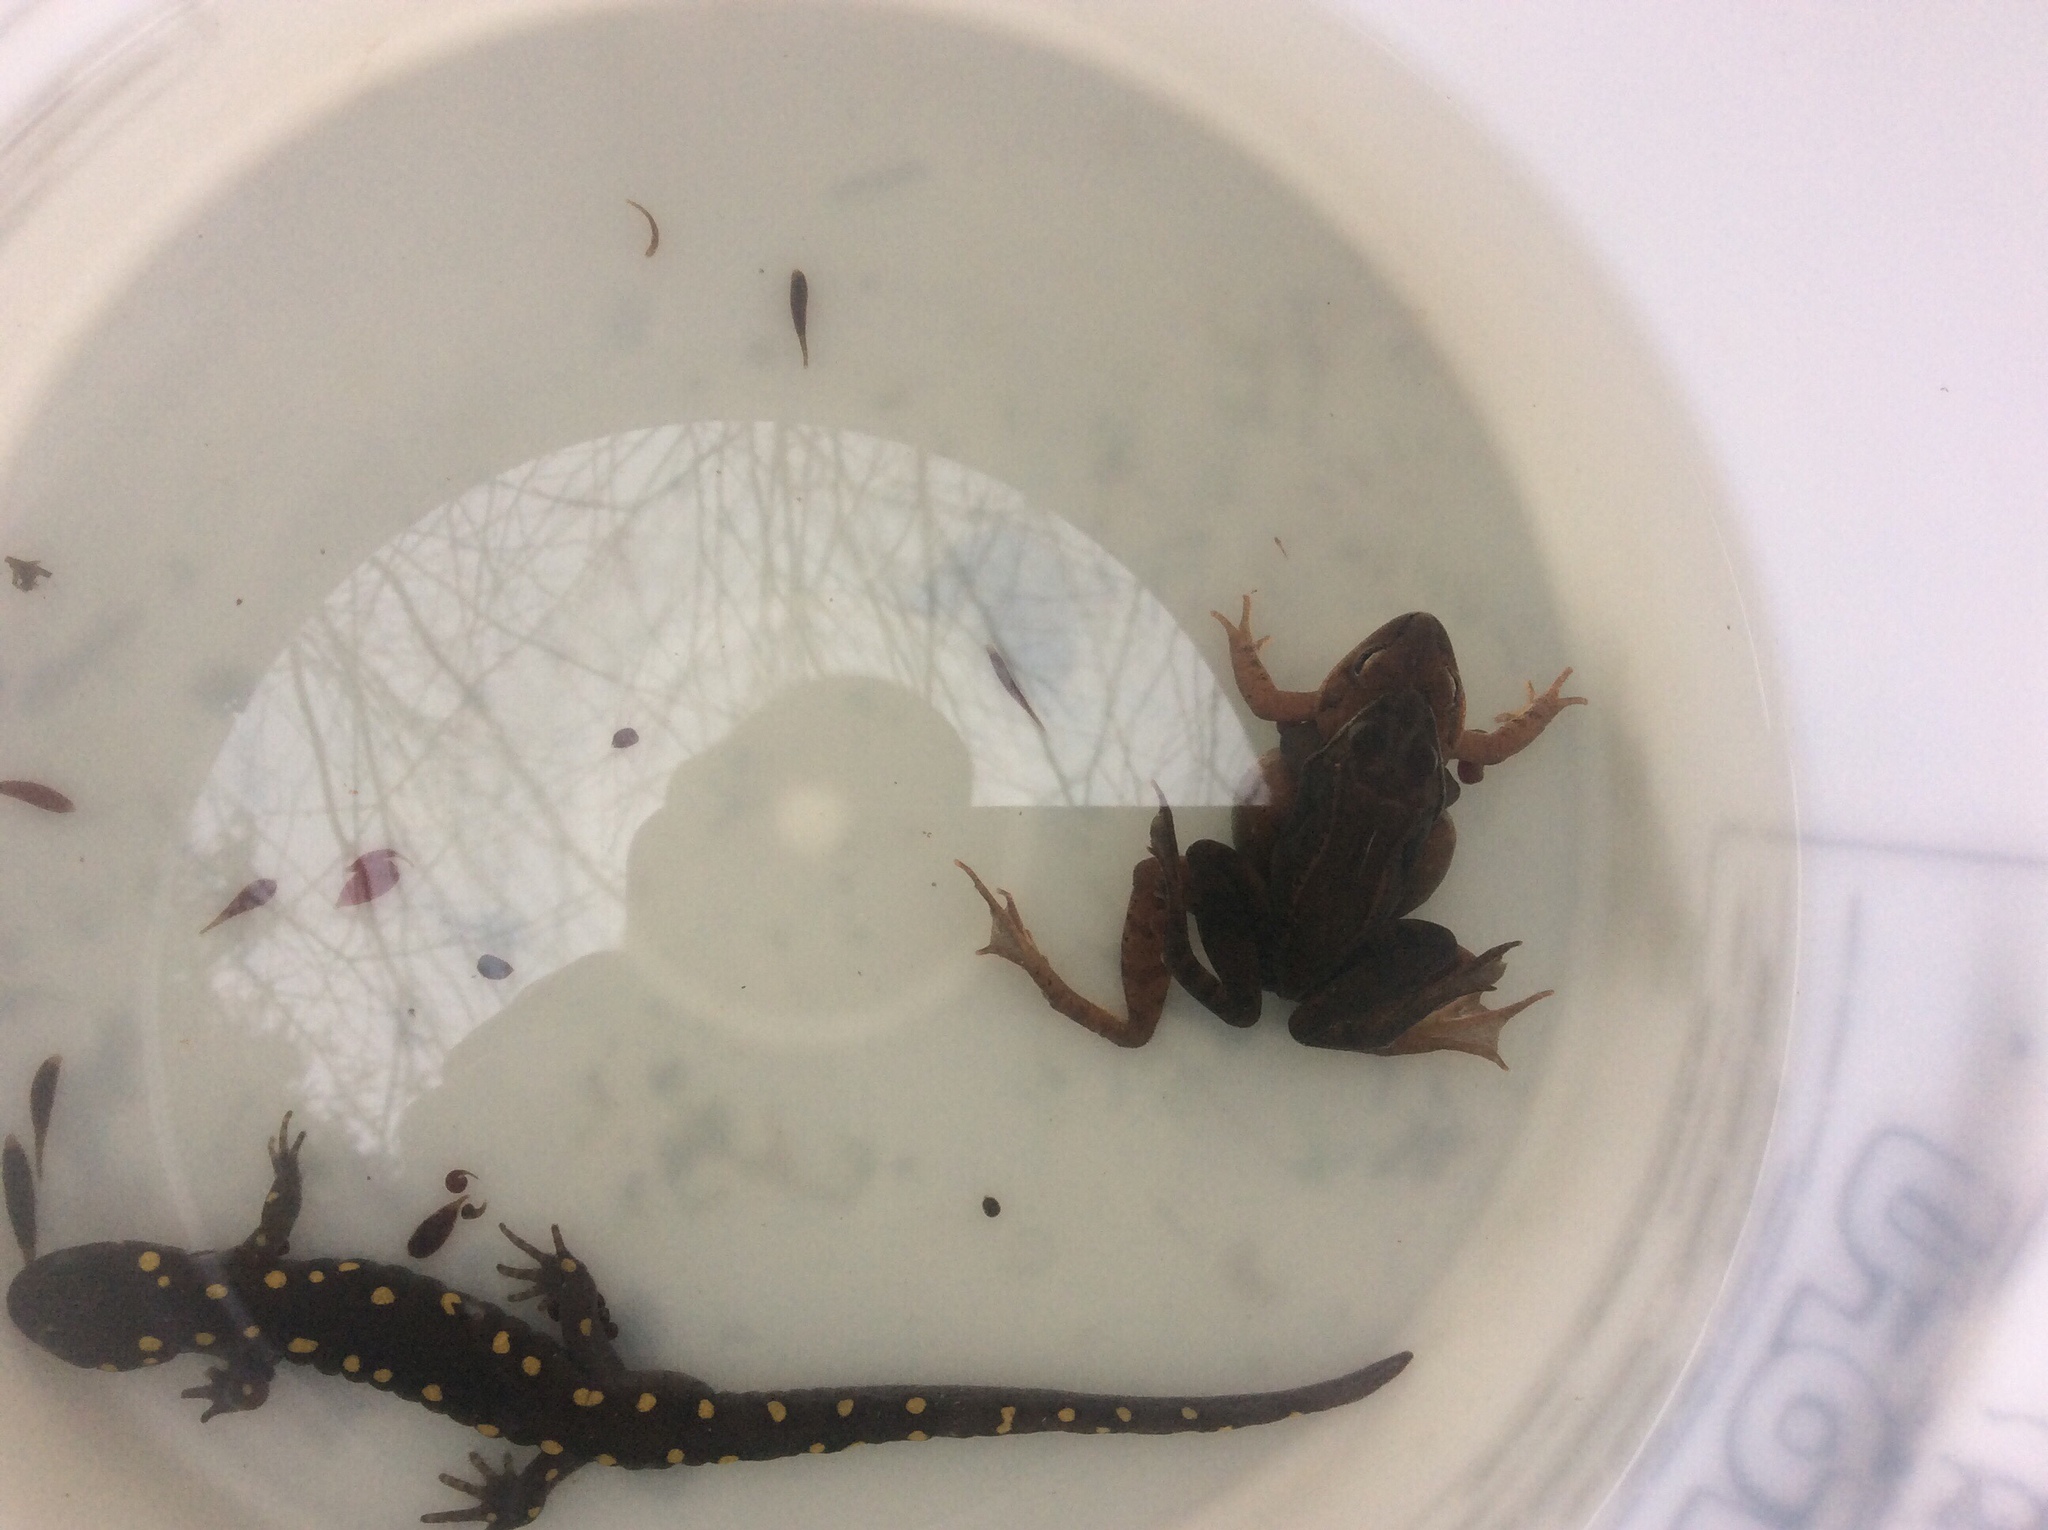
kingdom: Animalia
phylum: Chordata
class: Amphibia
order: Anura
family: Ranidae
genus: Lithobates
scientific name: Lithobates sylvaticus
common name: Wood frog
